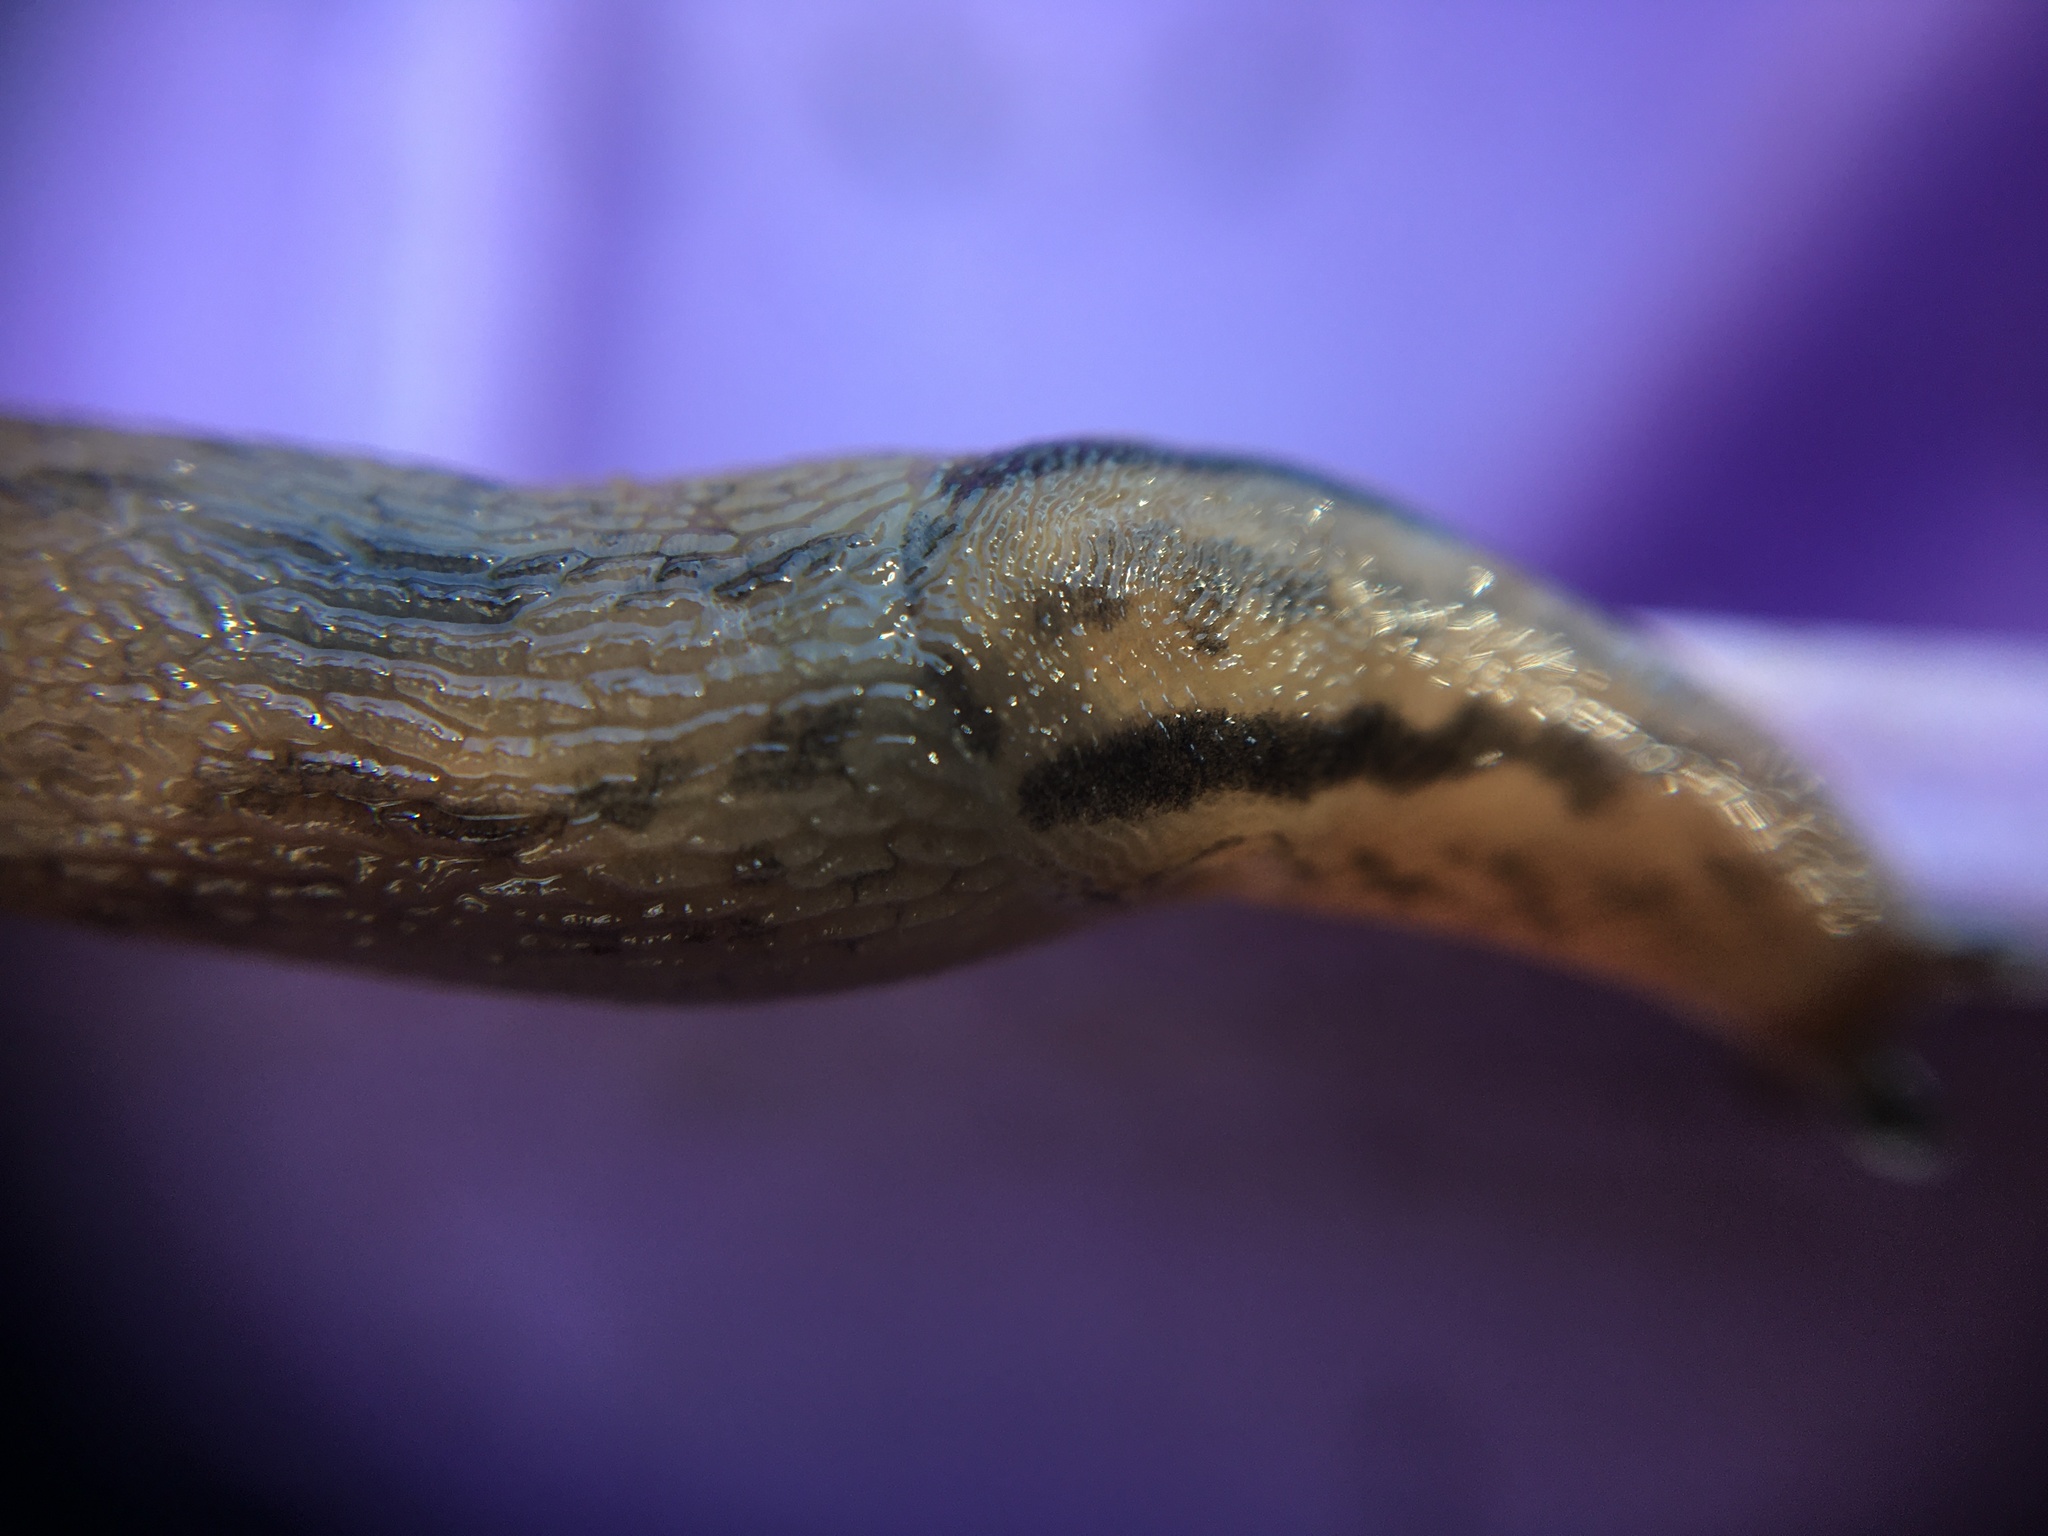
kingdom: Animalia
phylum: Mollusca
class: Gastropoda
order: Stylommatophora
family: Limacidae
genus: Ambigolimax
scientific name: Ambigolimax
